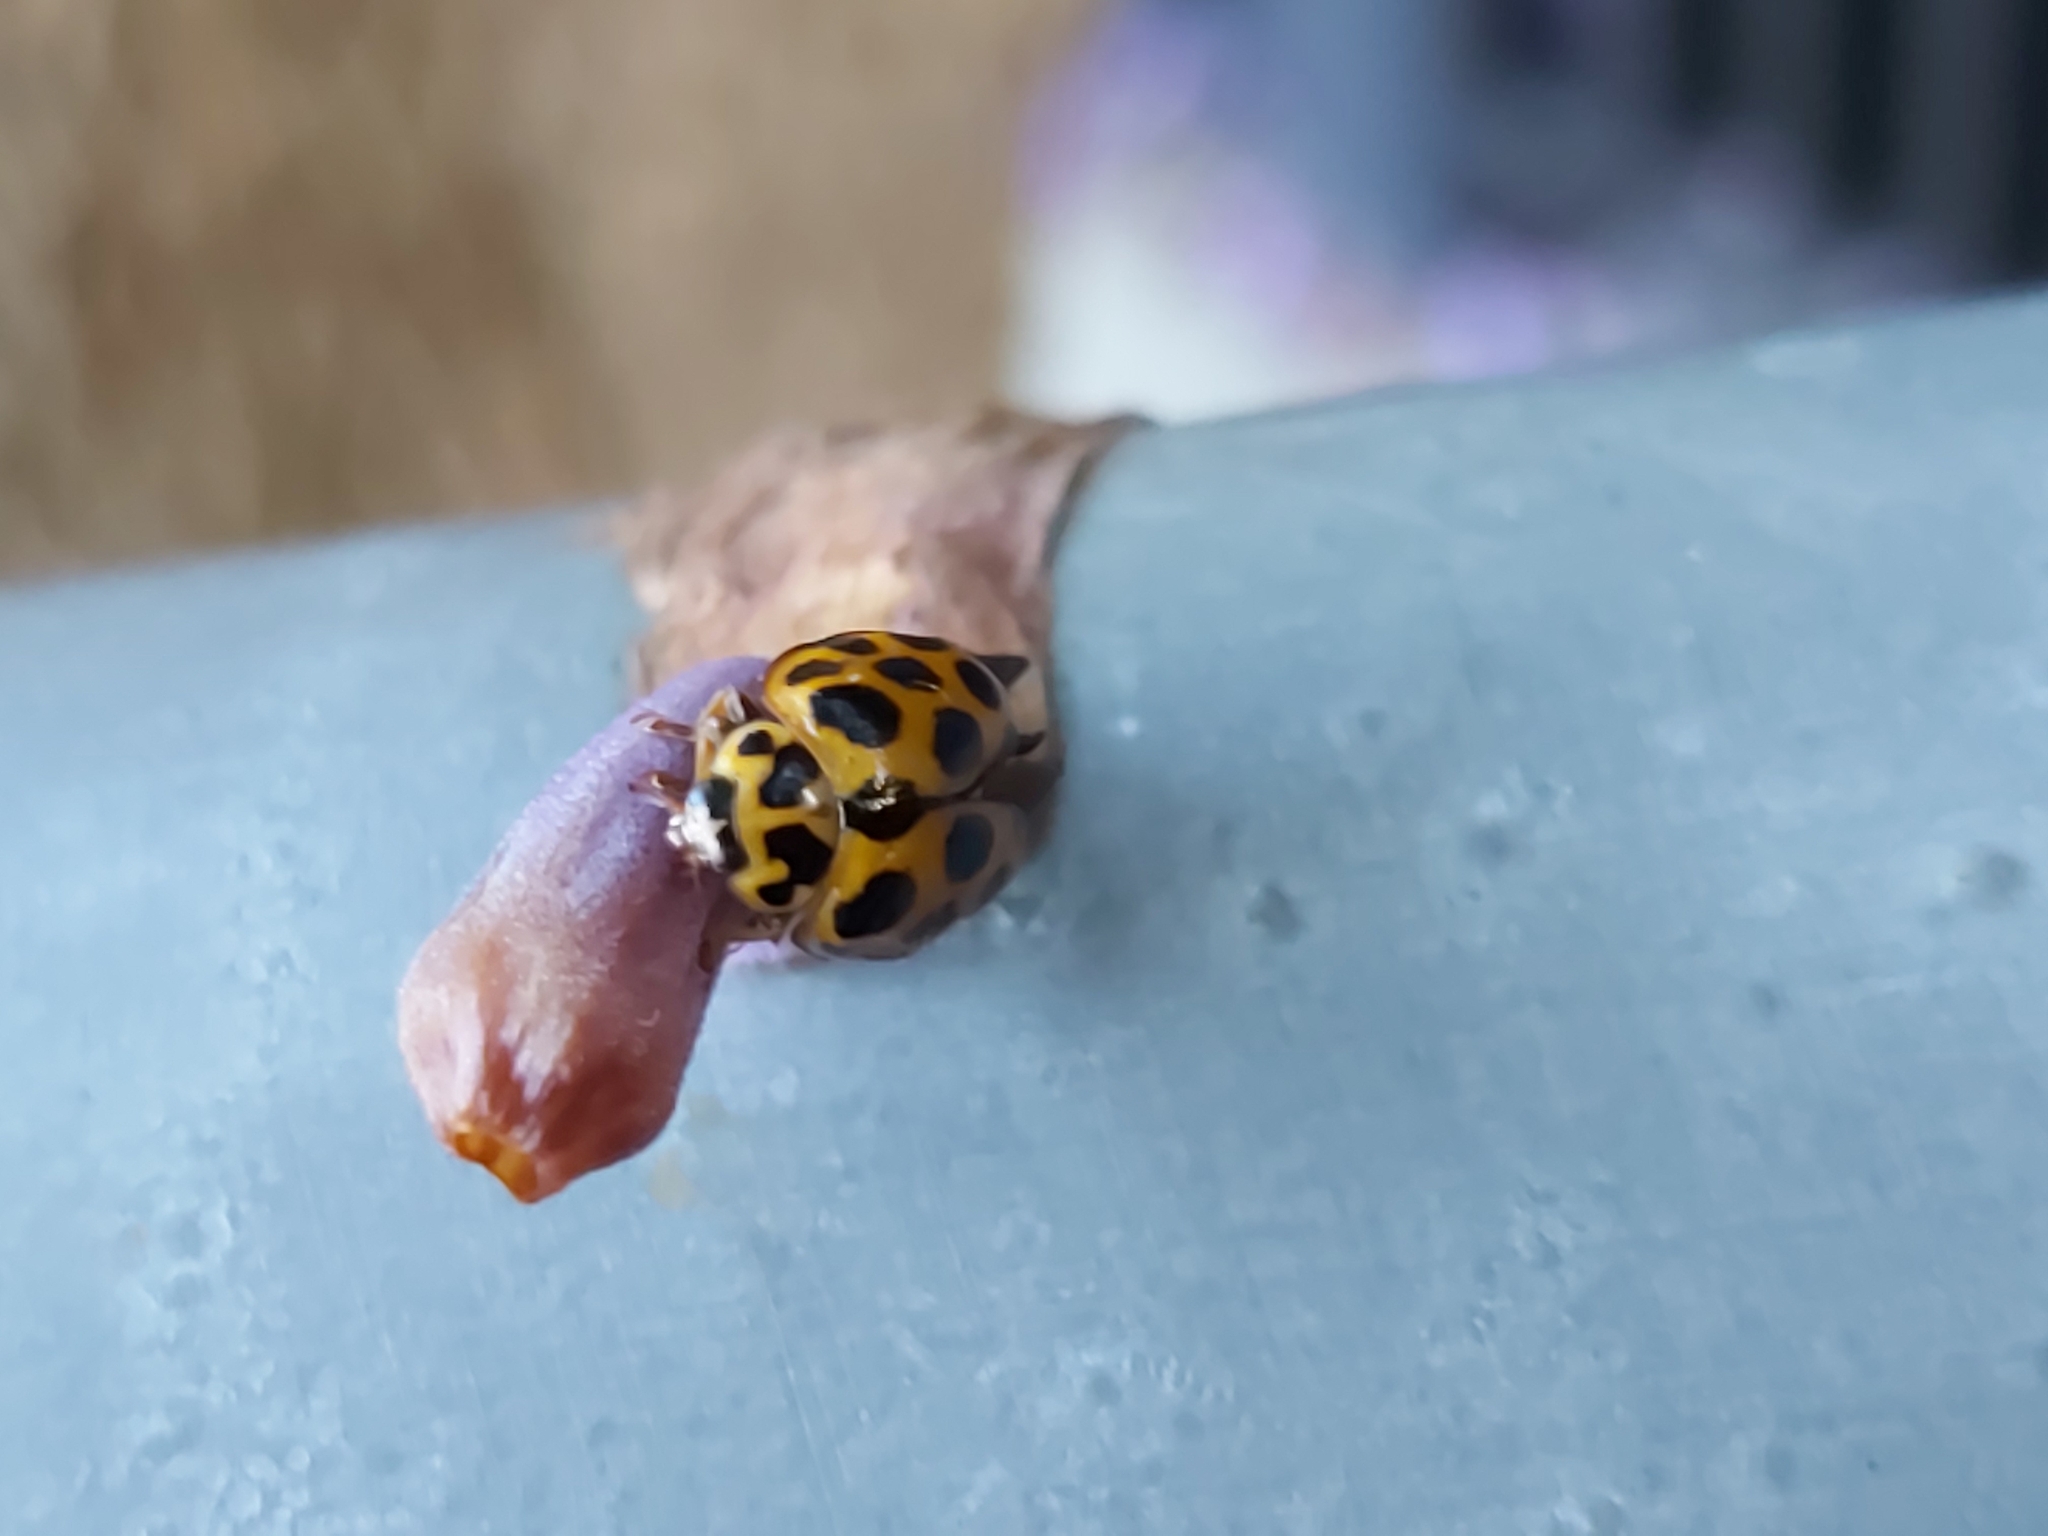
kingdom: Animalia
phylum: Arthropoda
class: Insecta
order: Coleoptera
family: Coccinellidae
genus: Harmonia
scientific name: Harmonia conformis
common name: Common spotted ladybird beetle
